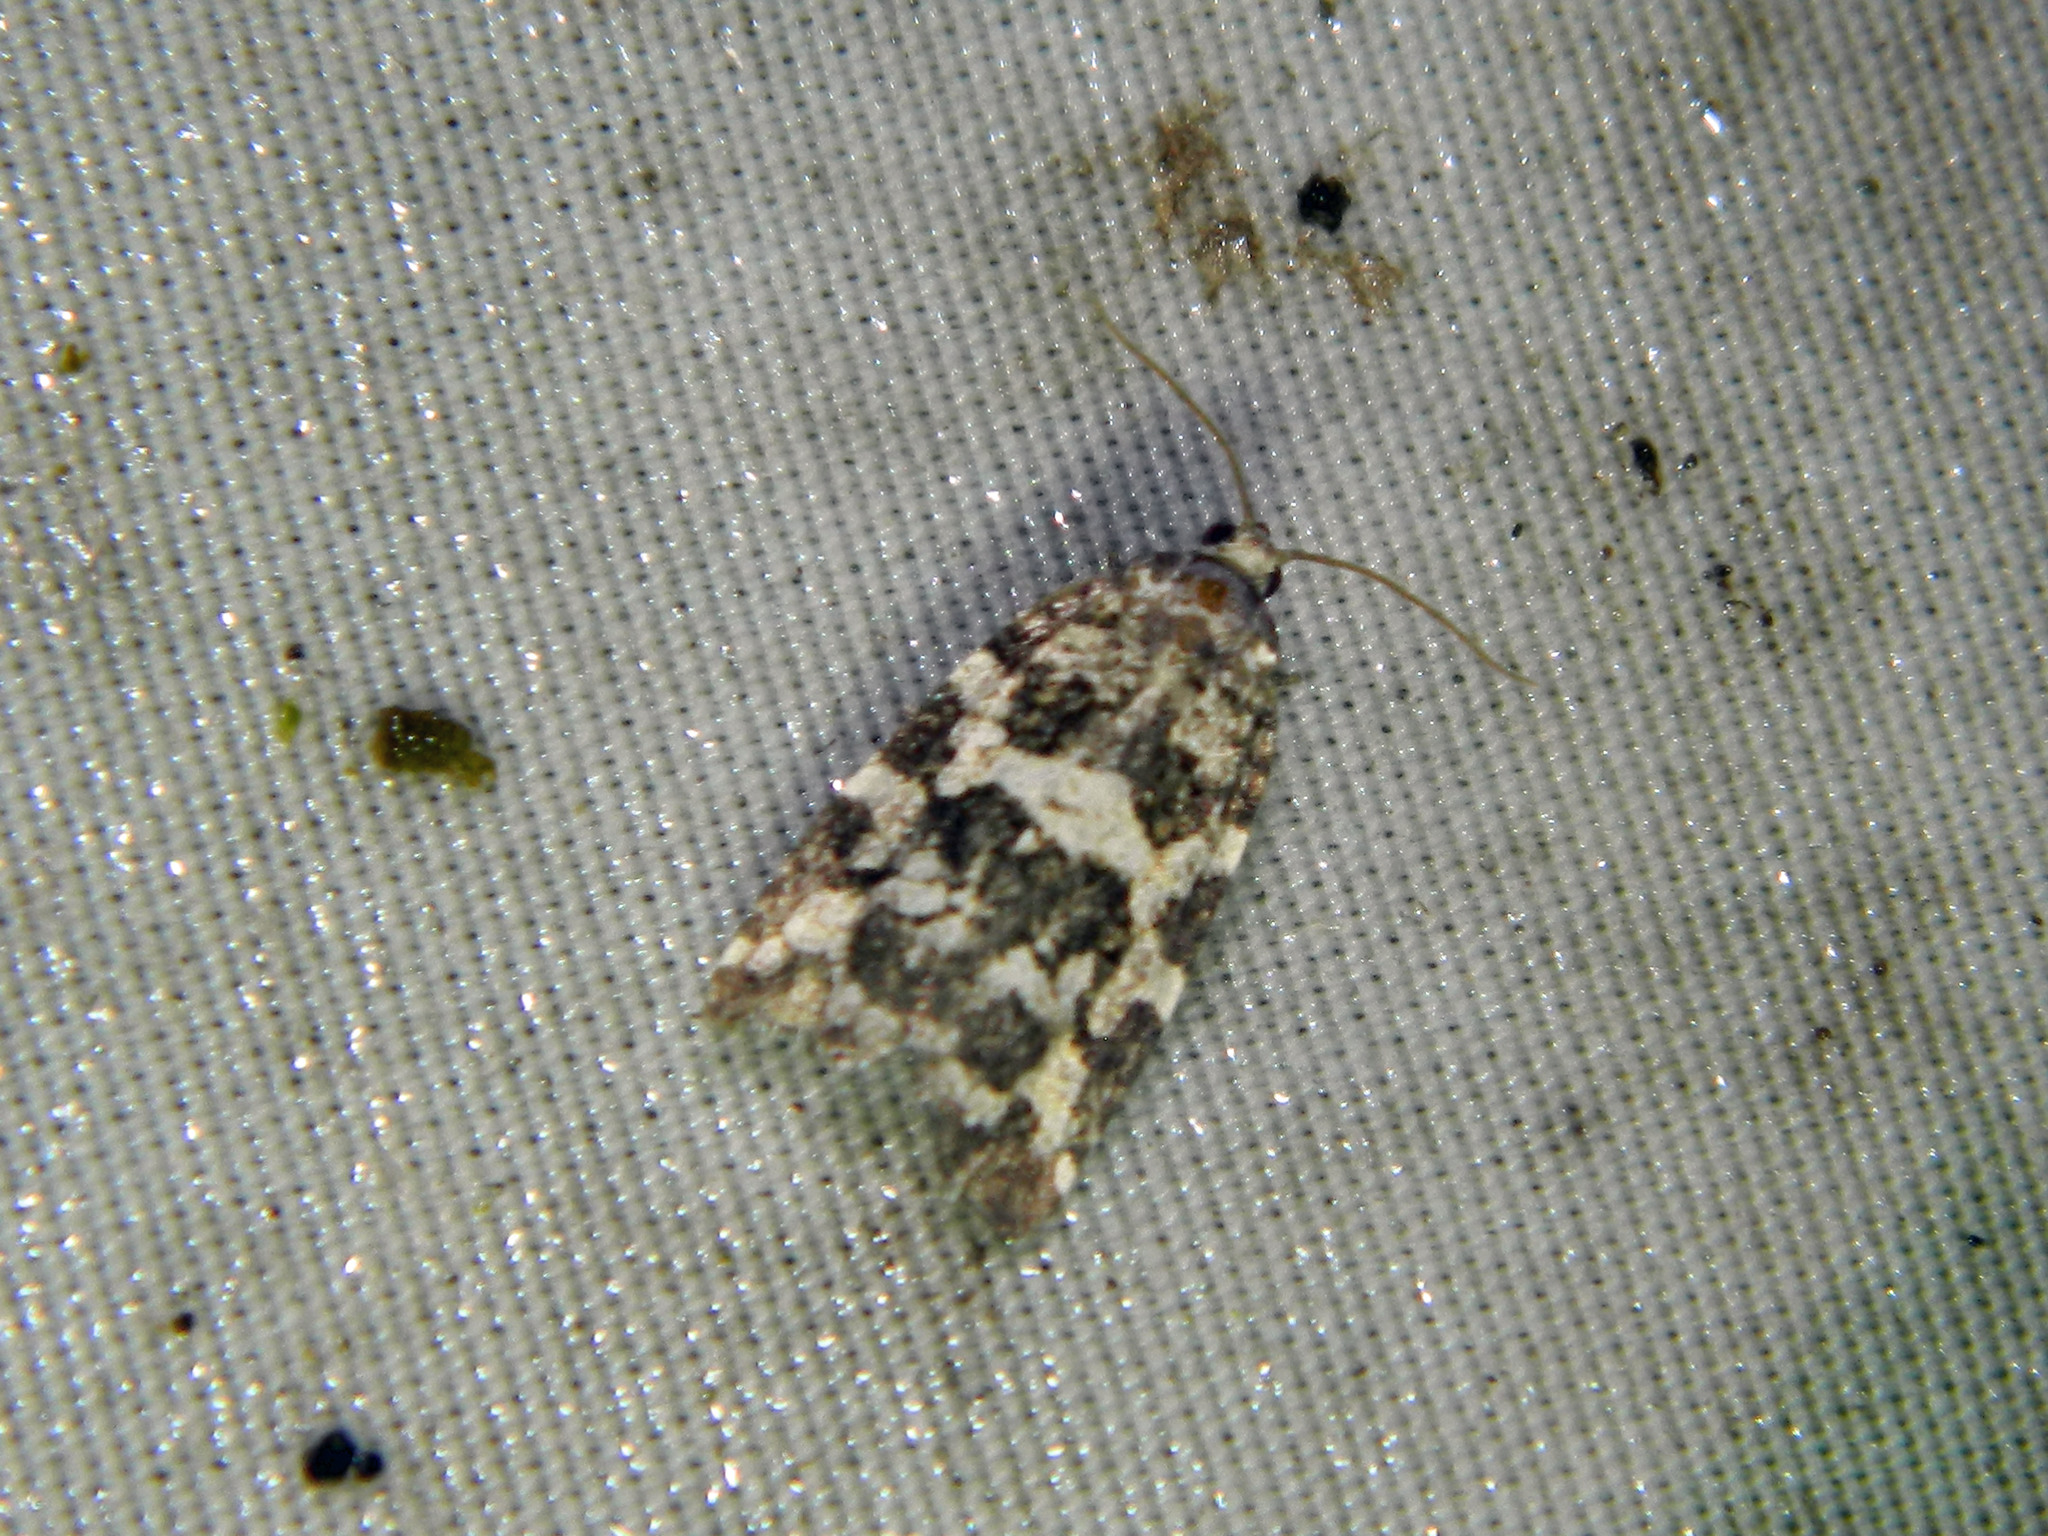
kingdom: Animalia
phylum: Arthropoda
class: Insecta
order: Lepidoptera
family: Tortricidae
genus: Archips
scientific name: Archips packardiana
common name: Spring spruce needle moth
